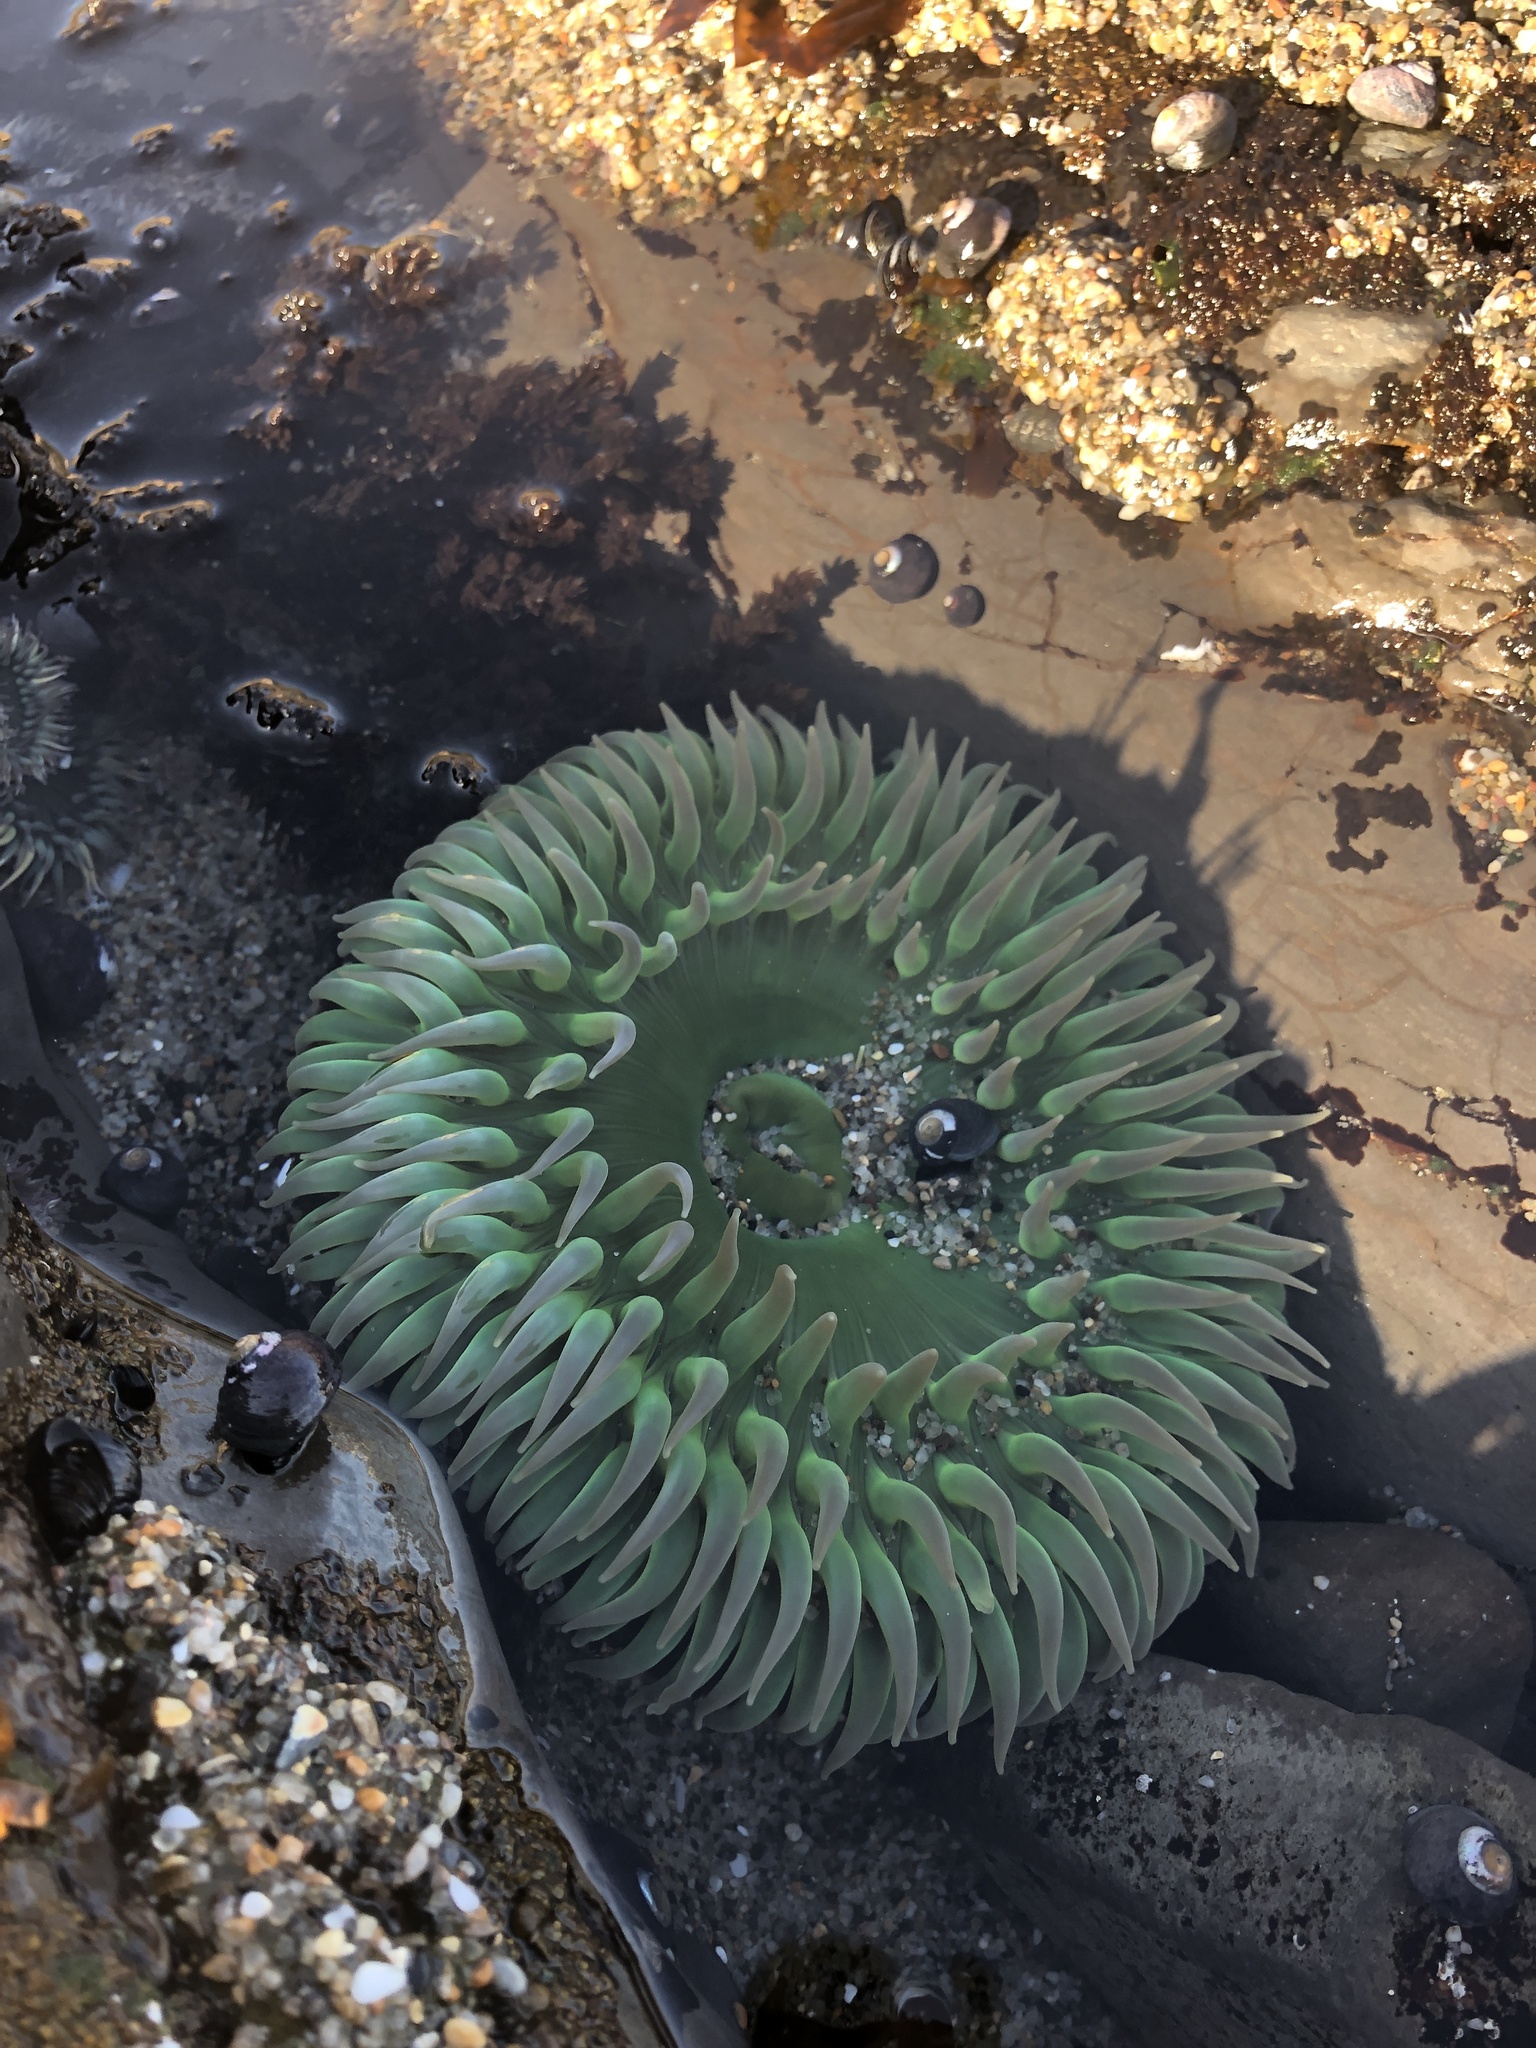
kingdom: Animalia
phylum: Cnidaria
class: Anthozoa
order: Actiniaria
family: Actiniidae
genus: Anthopleura
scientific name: Anthopleura xanthogrammica
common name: Giant green anemone
